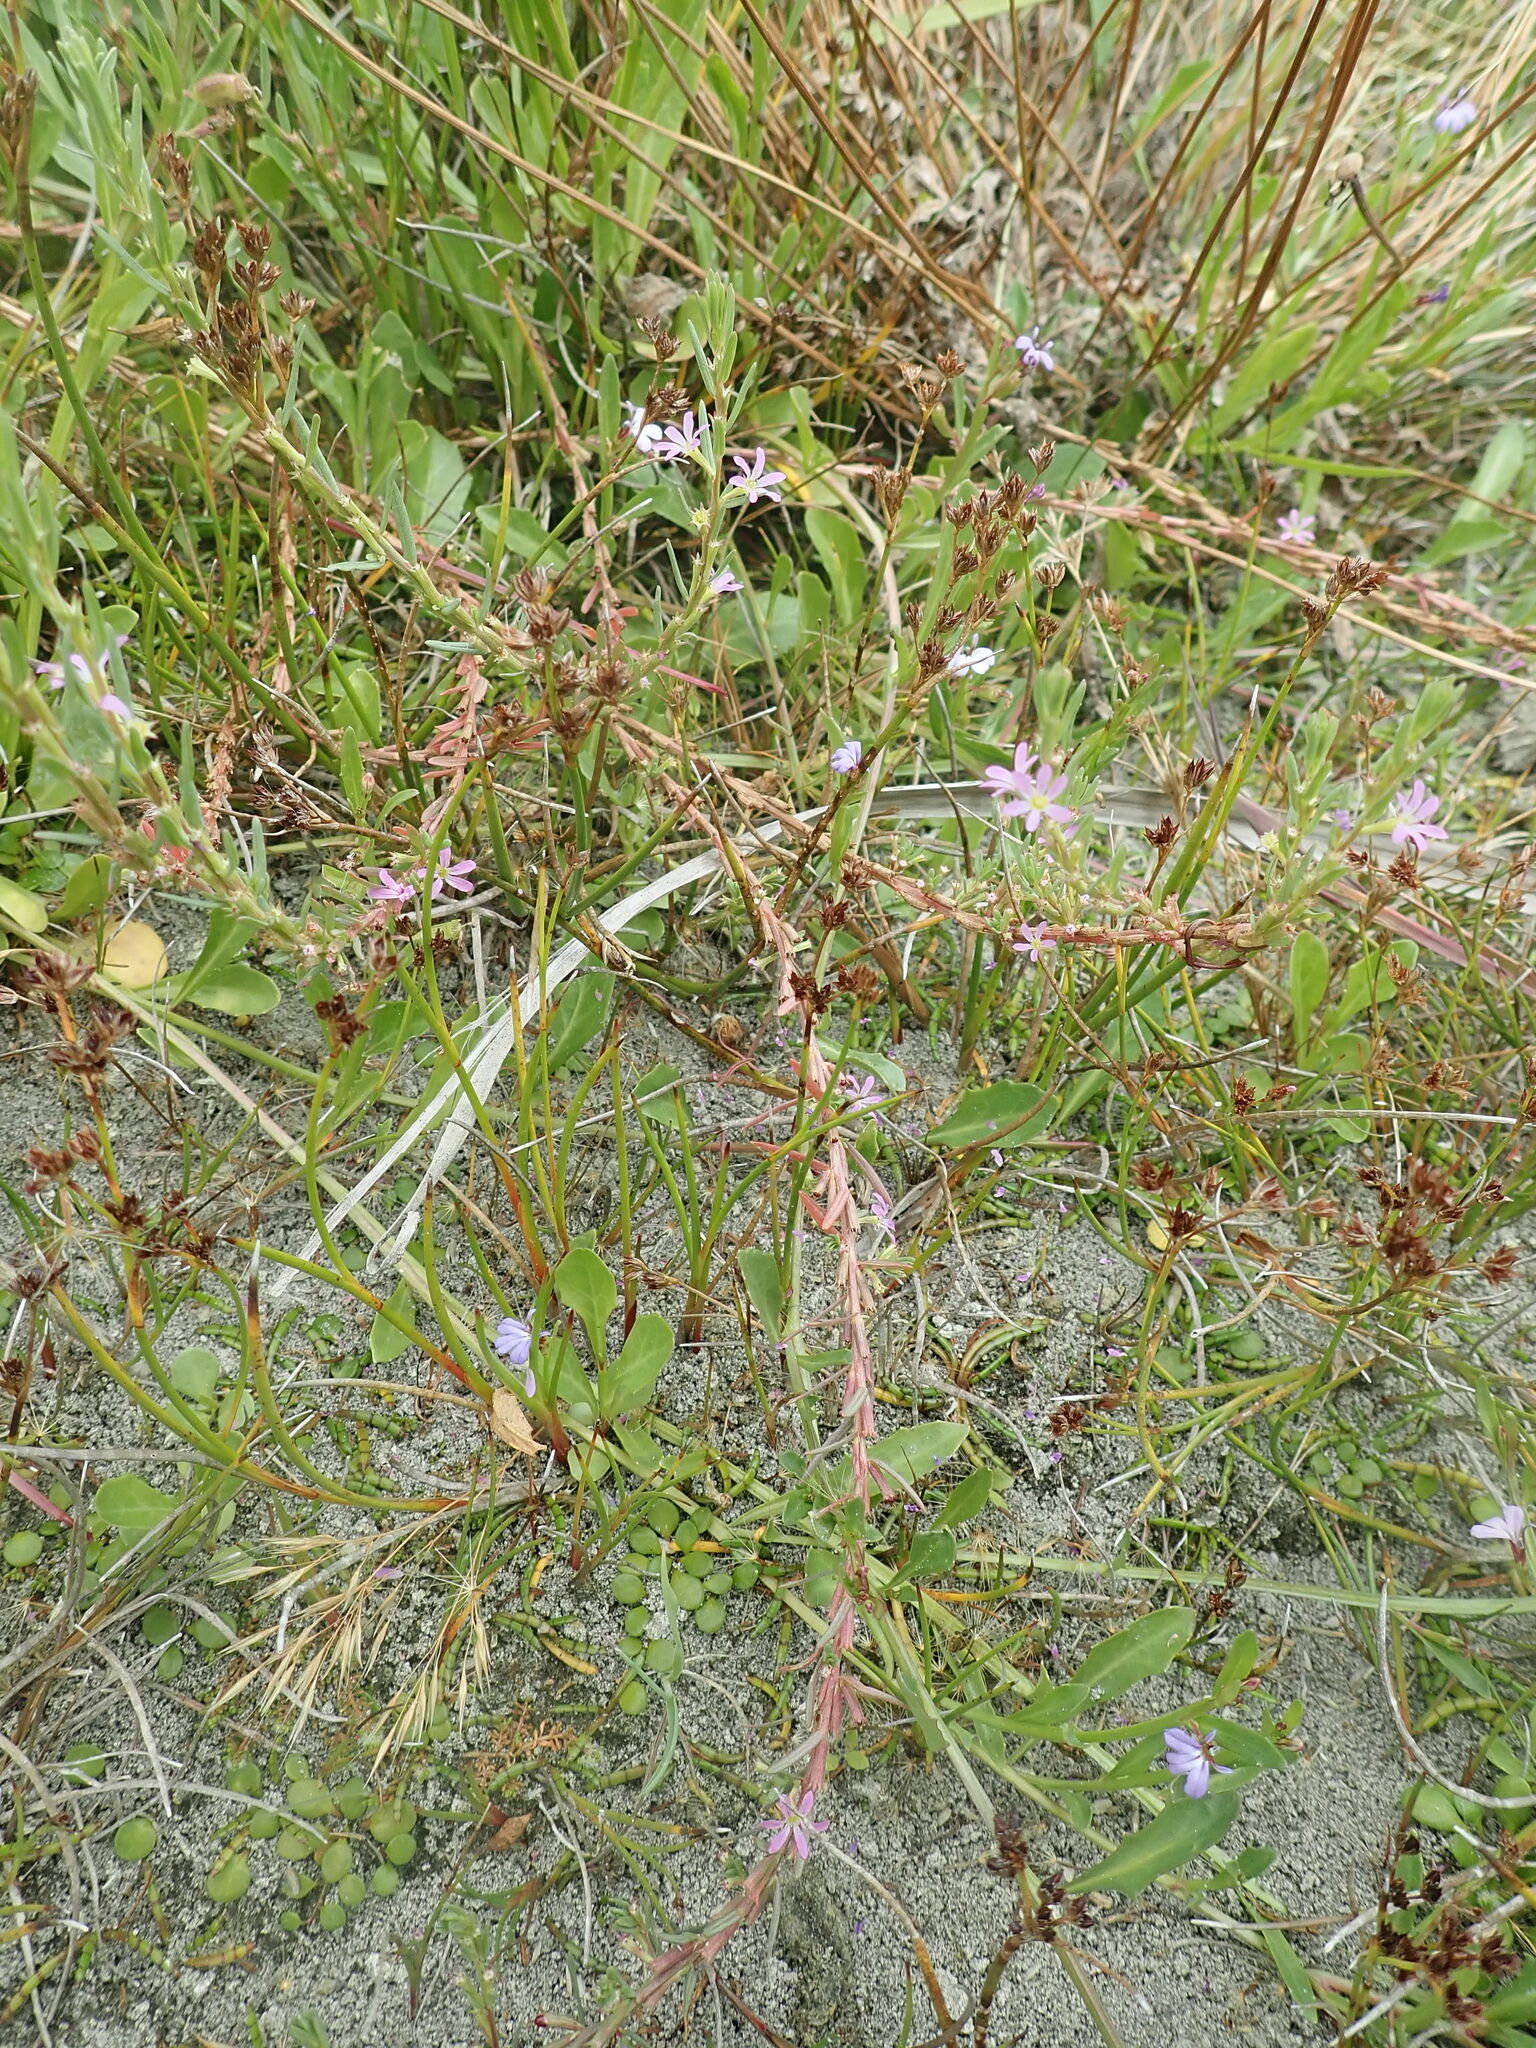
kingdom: Plantae
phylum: Tracheophyta
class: Magnoliopsida
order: Myrtales
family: Lythraceae
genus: Lythrum
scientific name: Lythrum hyssopifolia
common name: Grass-poly
